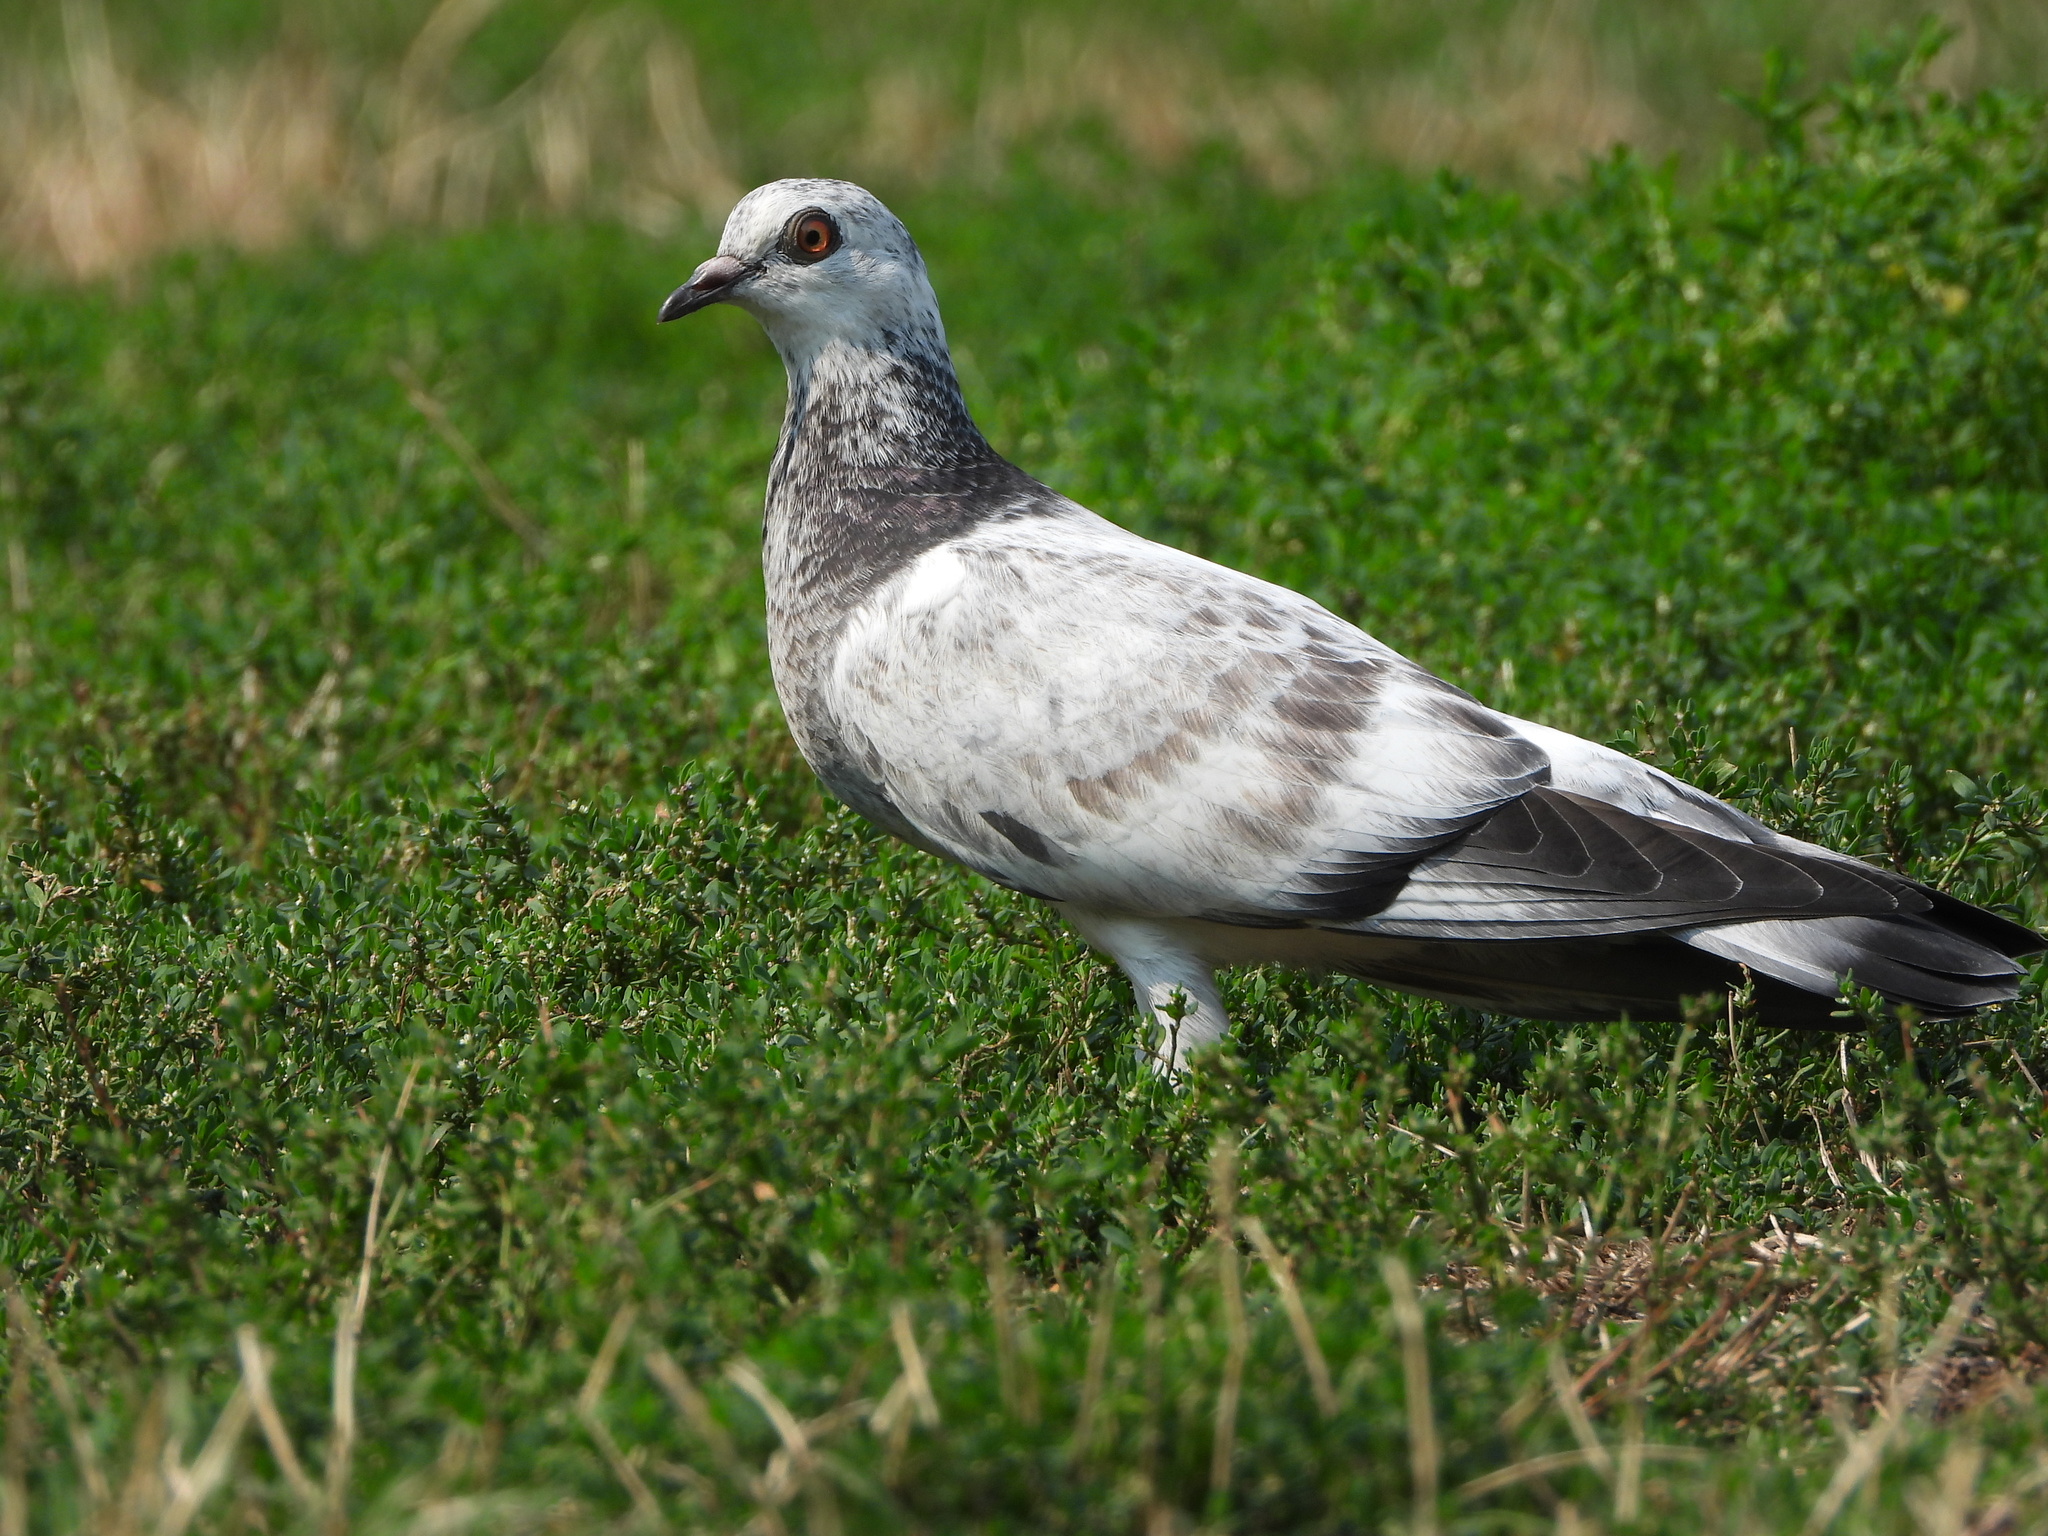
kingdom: Animalia
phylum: Chordata
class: Aves
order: Columbiformes
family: Columbidae
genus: Columba
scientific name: Columba livia
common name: Rock pigeon
